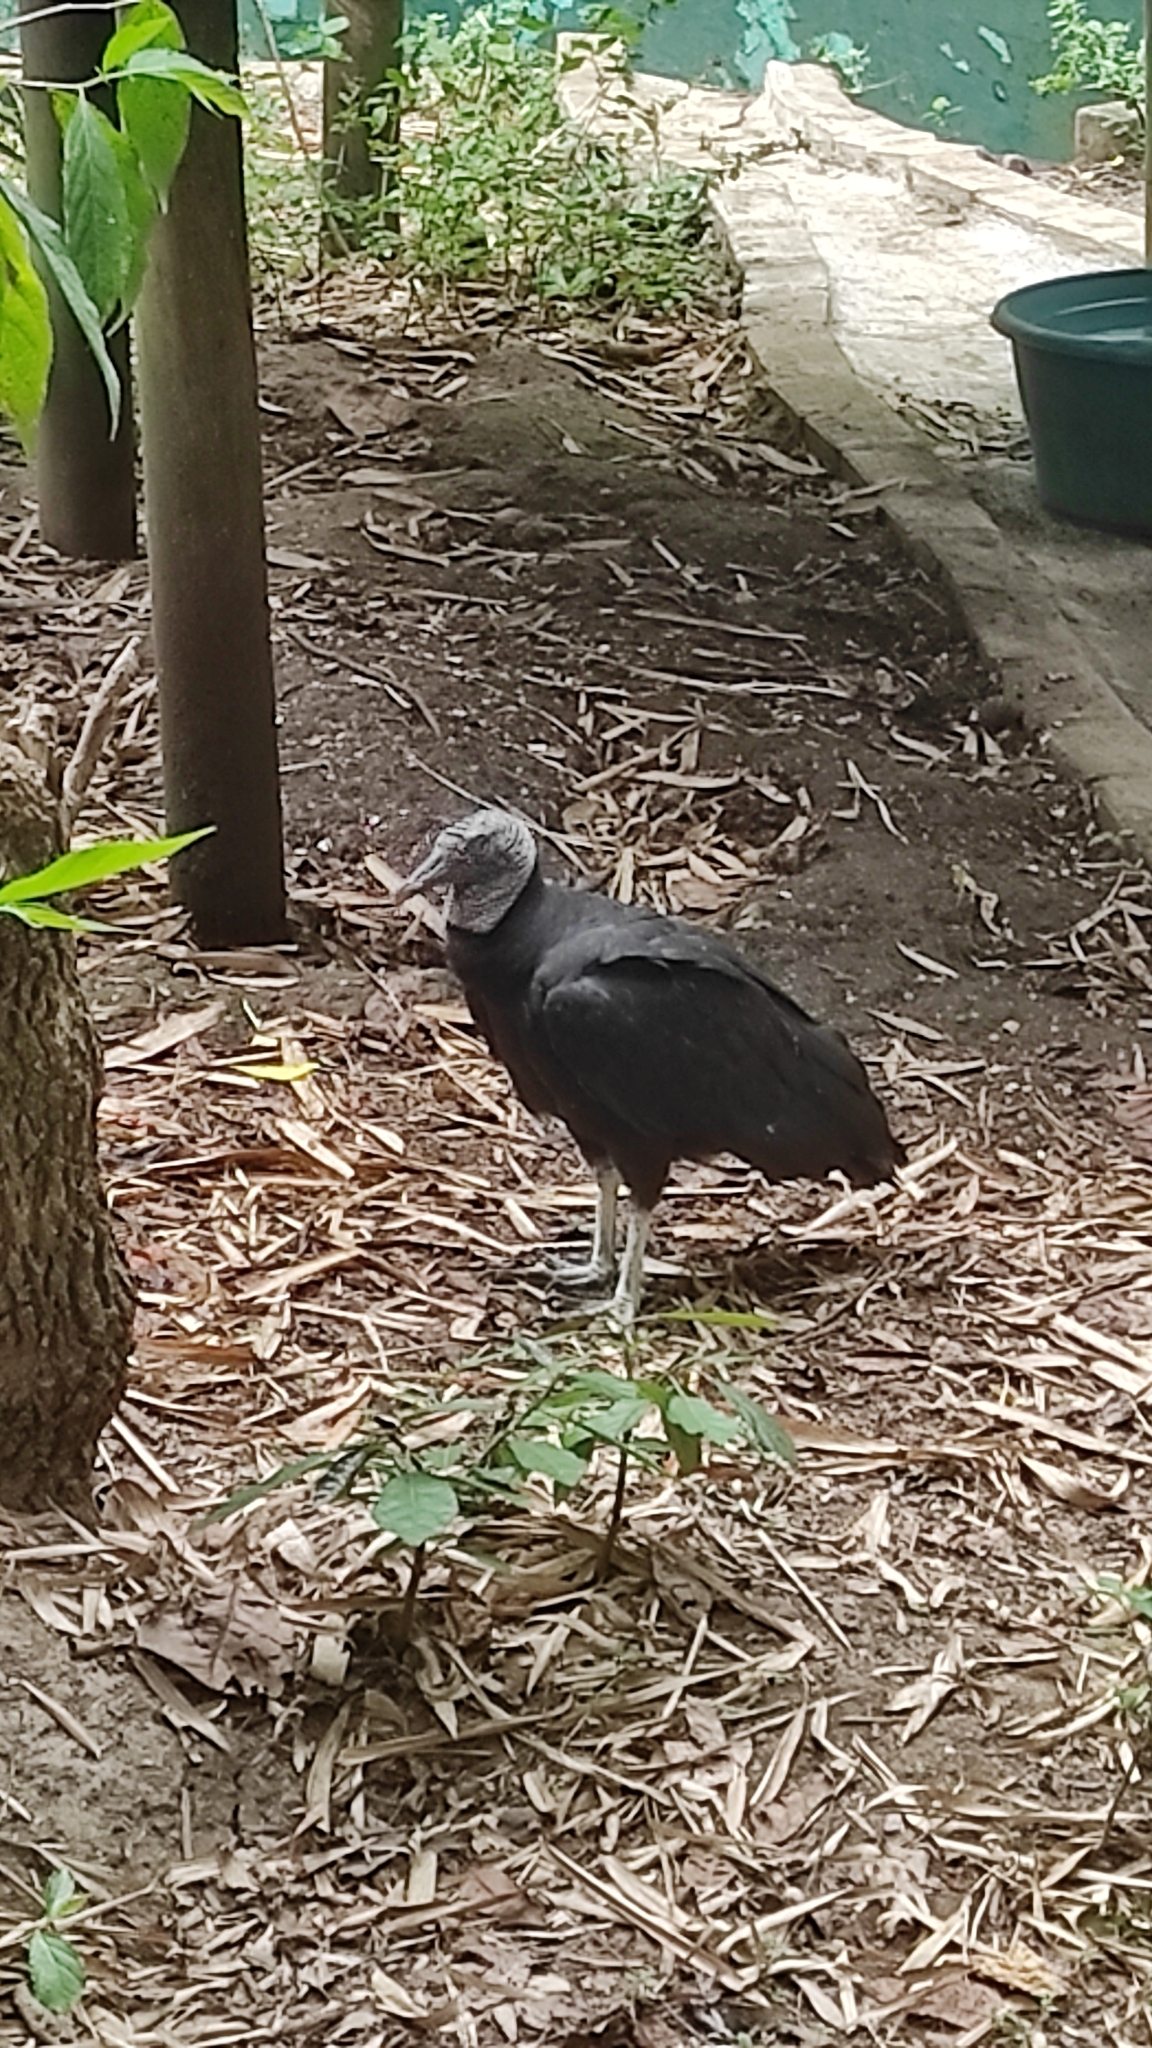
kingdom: Animalia
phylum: Chordata
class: Aves
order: Accipitriformes
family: Cathartidae
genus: Coragyps
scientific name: Coragyps atratus
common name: Black vulture
